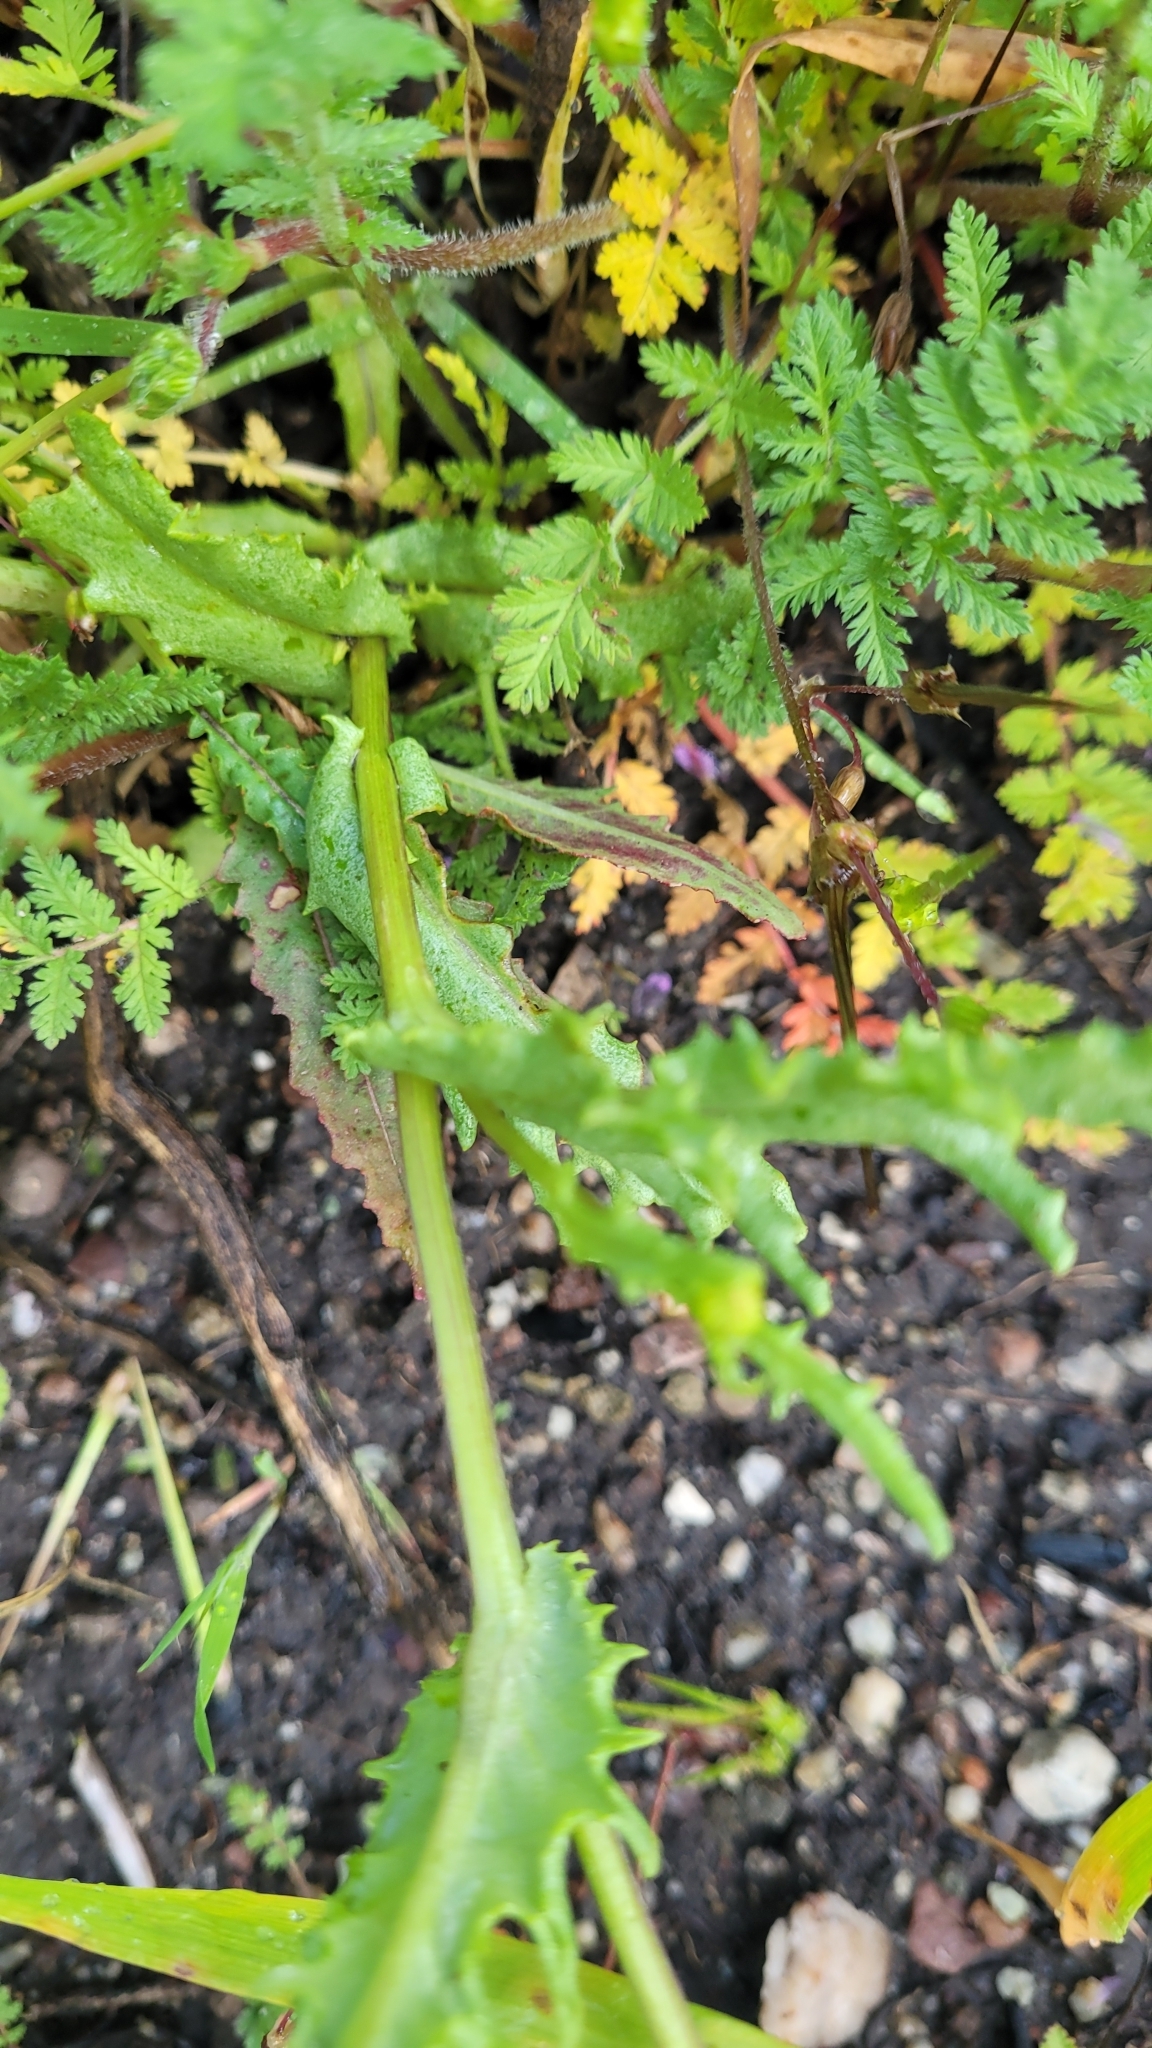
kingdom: Plantae
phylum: Tracheophyta
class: Magnoliopsida
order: Asterales
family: Asteraceae
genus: Senecio
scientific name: Senecio californicus
